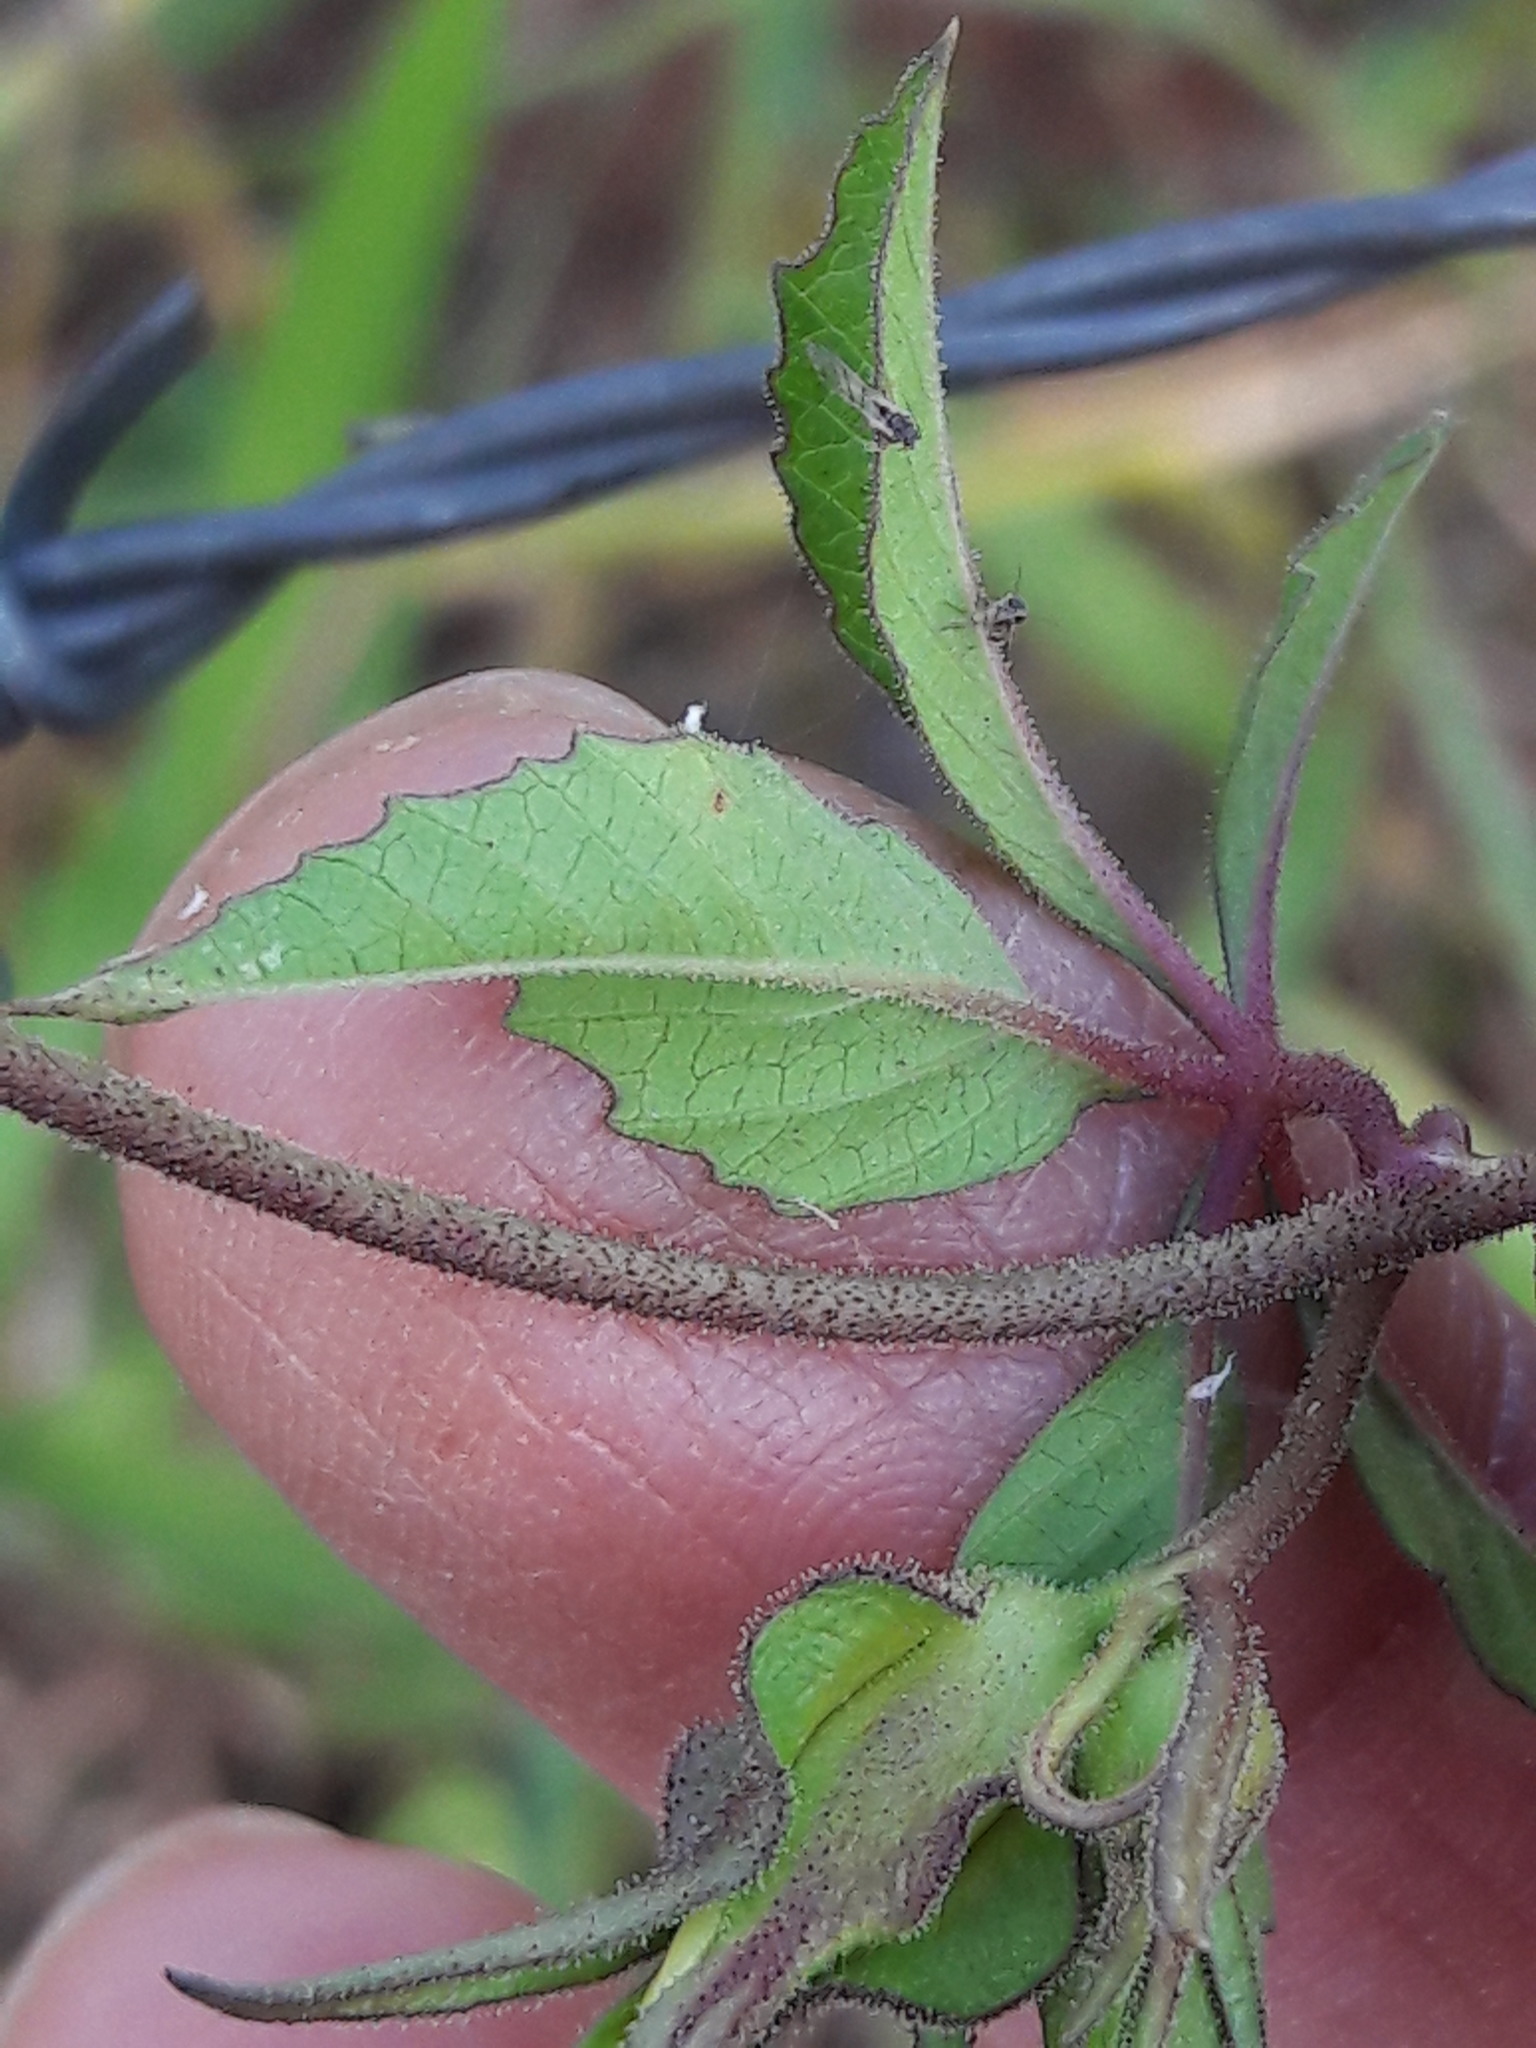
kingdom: Plantae
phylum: Tracheophyta
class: Magnoliopsida
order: Solanales
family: Convolvulaceae
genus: Distimake
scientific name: Distimake dissectus
